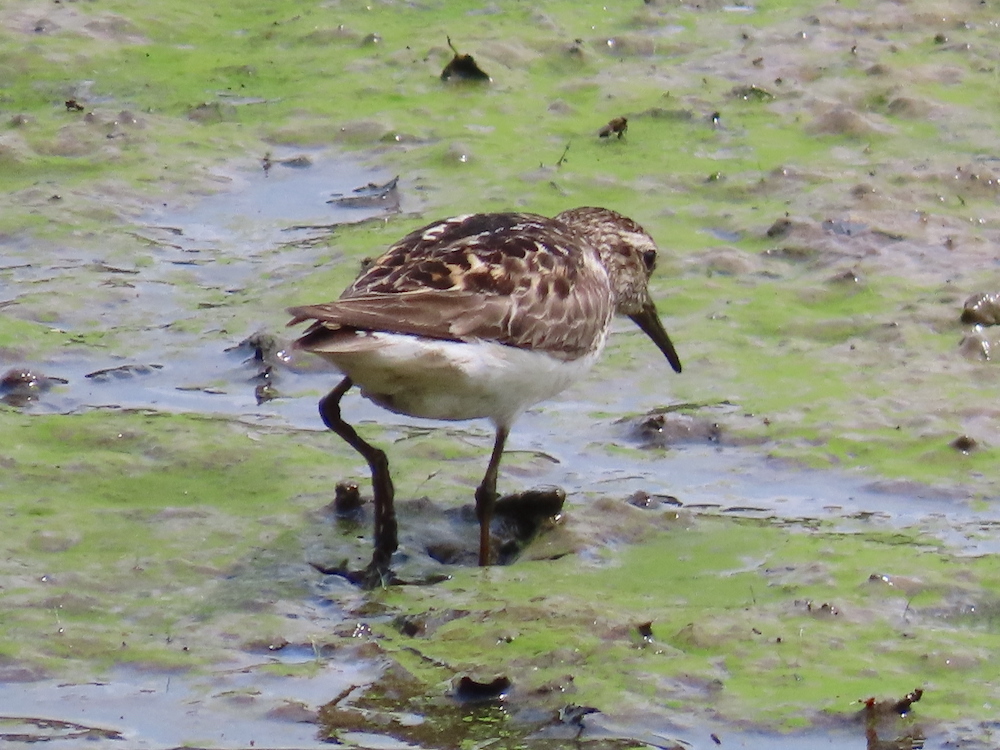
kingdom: Animalia
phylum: Chordata
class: Aves
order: Charadriiformes
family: Scolopacidae
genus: Calidris
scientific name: Calidris minutilla
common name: Least sandpiper
